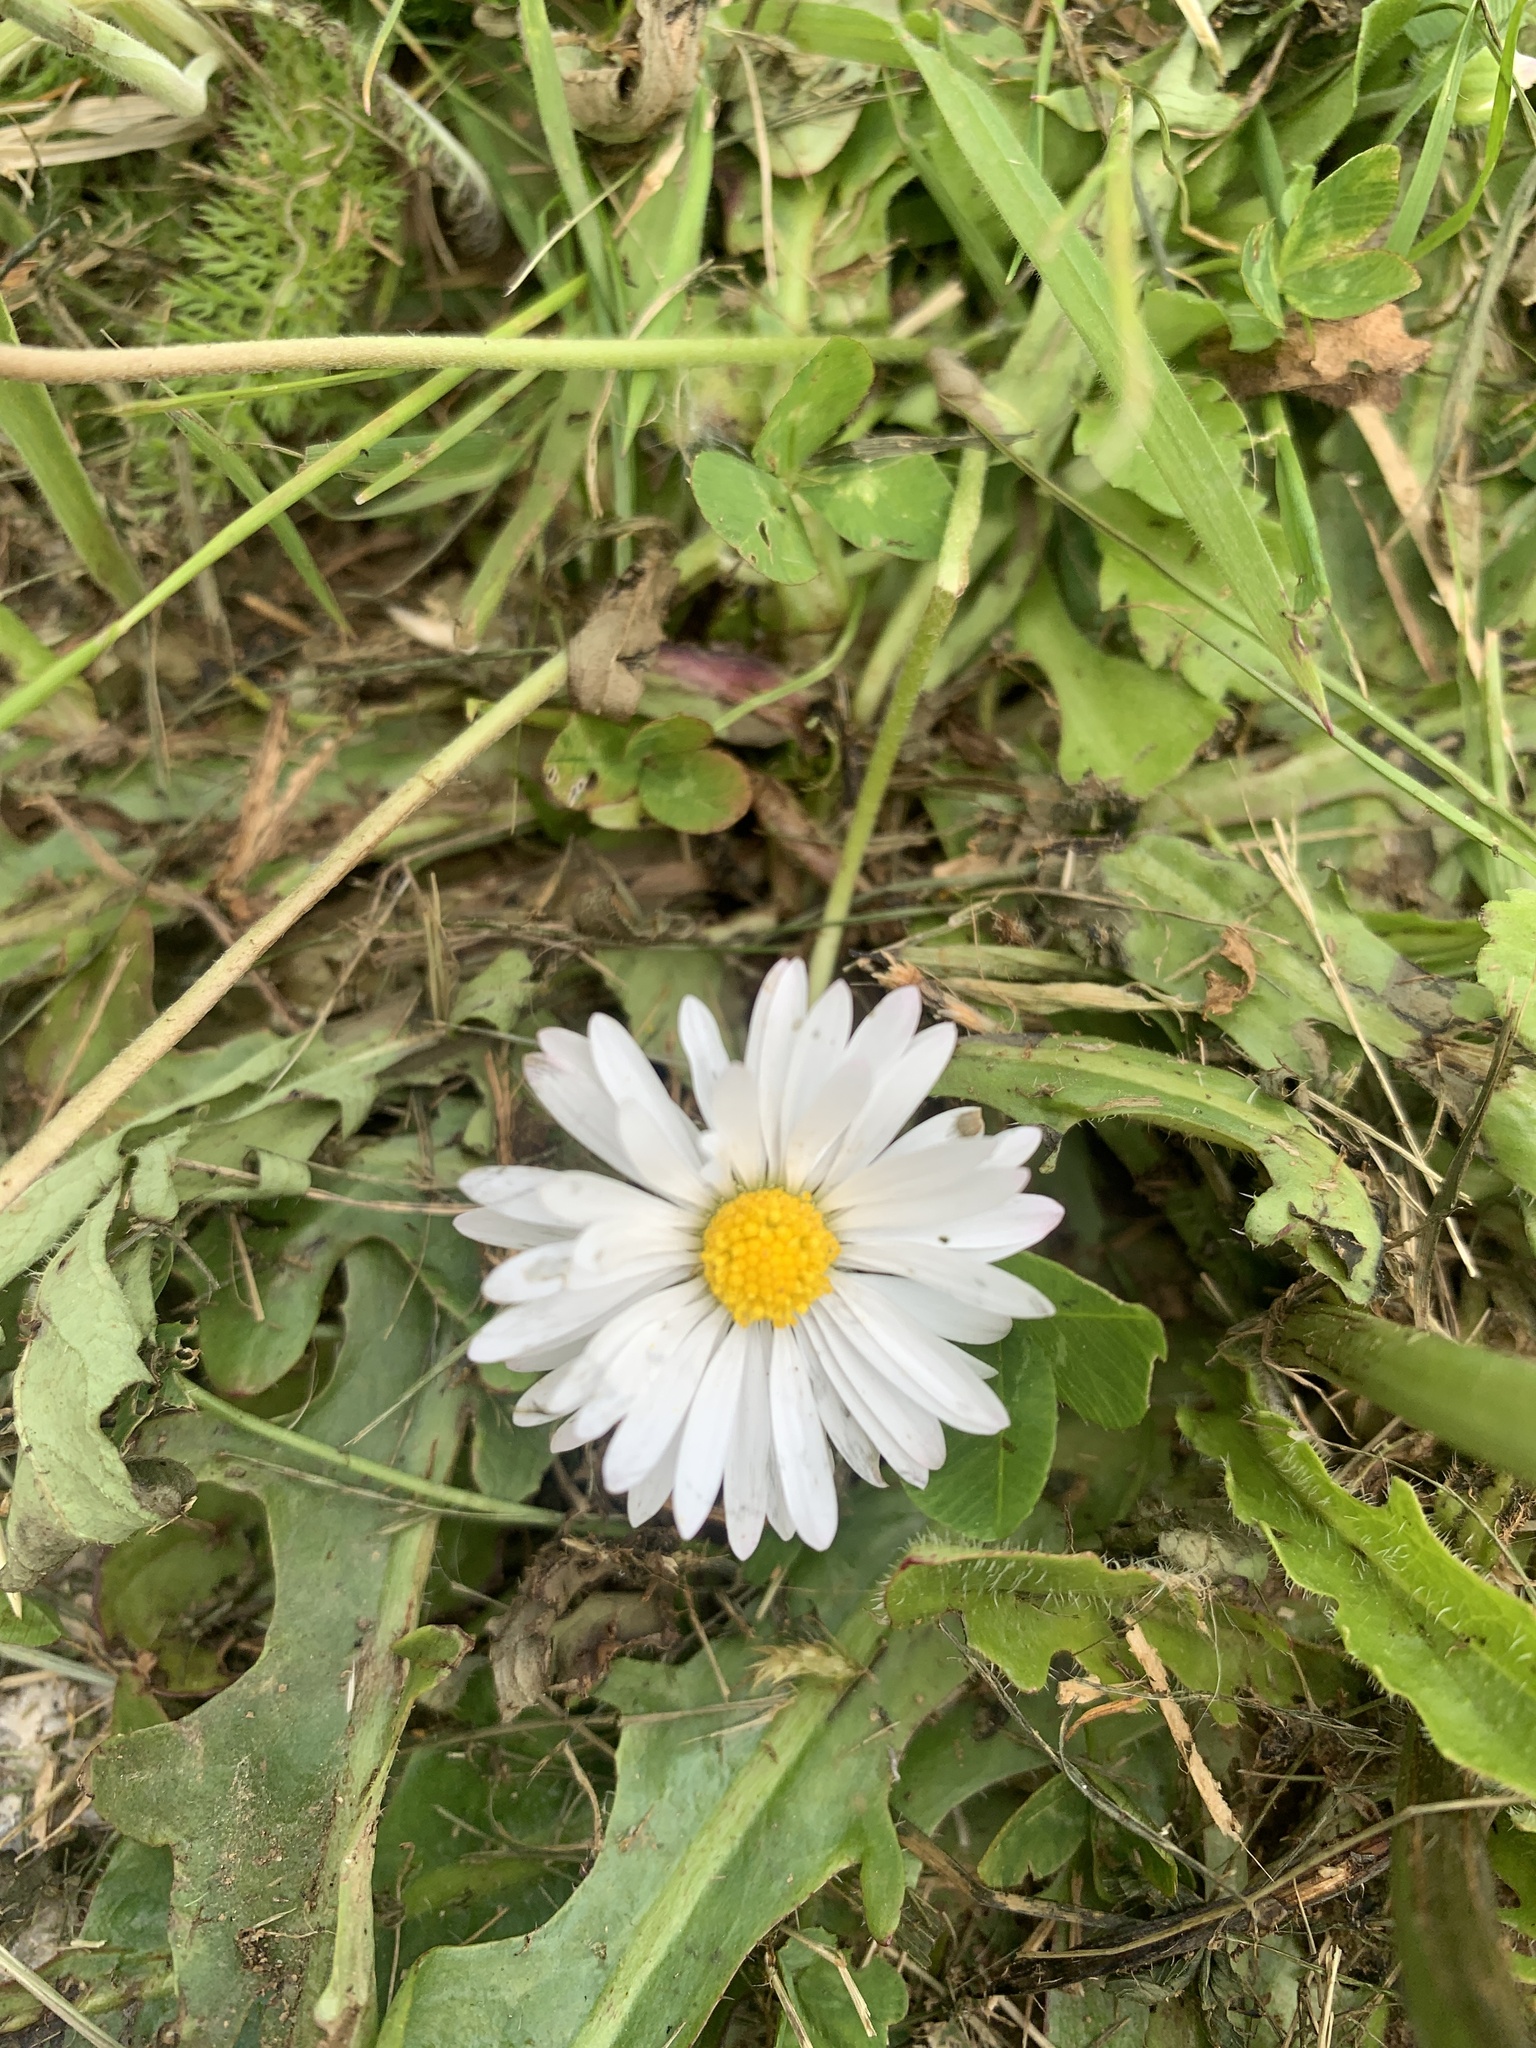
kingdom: Plantae
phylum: Tracheophyta
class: Magnoliopsida
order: Asterales
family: Asteraceae
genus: Bellis
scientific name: Bellis perennis
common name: Lawndaisy
